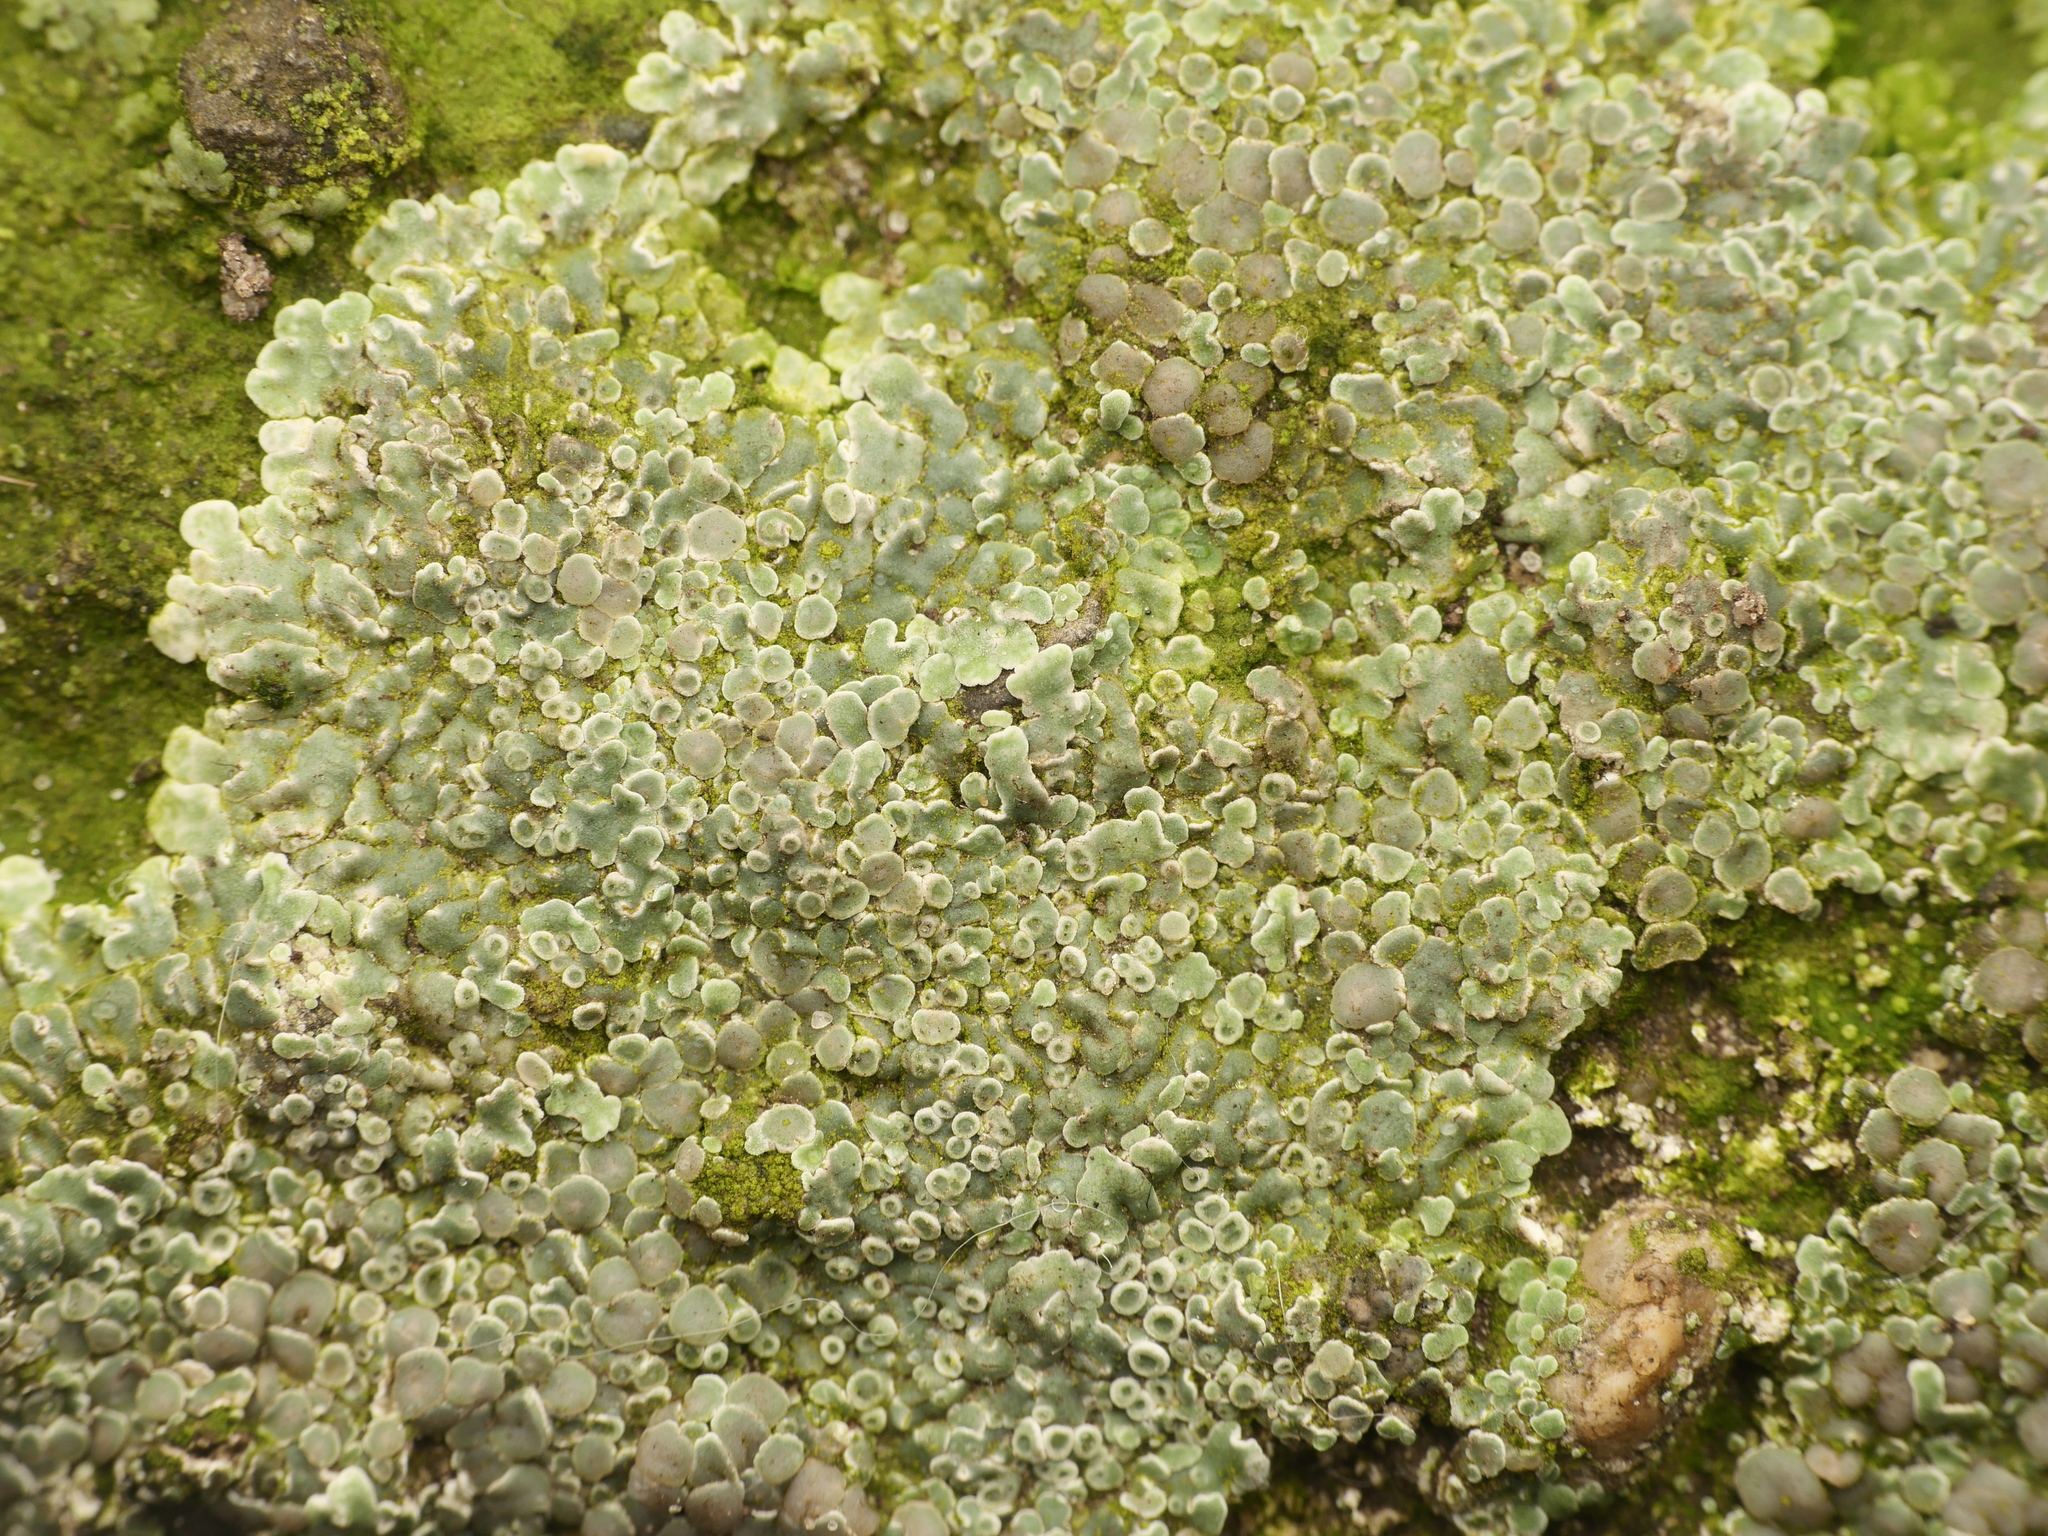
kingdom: Fungi
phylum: Ascomycota
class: Lecanoromycetes
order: Lecanorales
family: Lecanoraceae
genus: Protoparmeliopsis
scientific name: Protoparmeliopsis muralis
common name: Stonewall rim lichen
